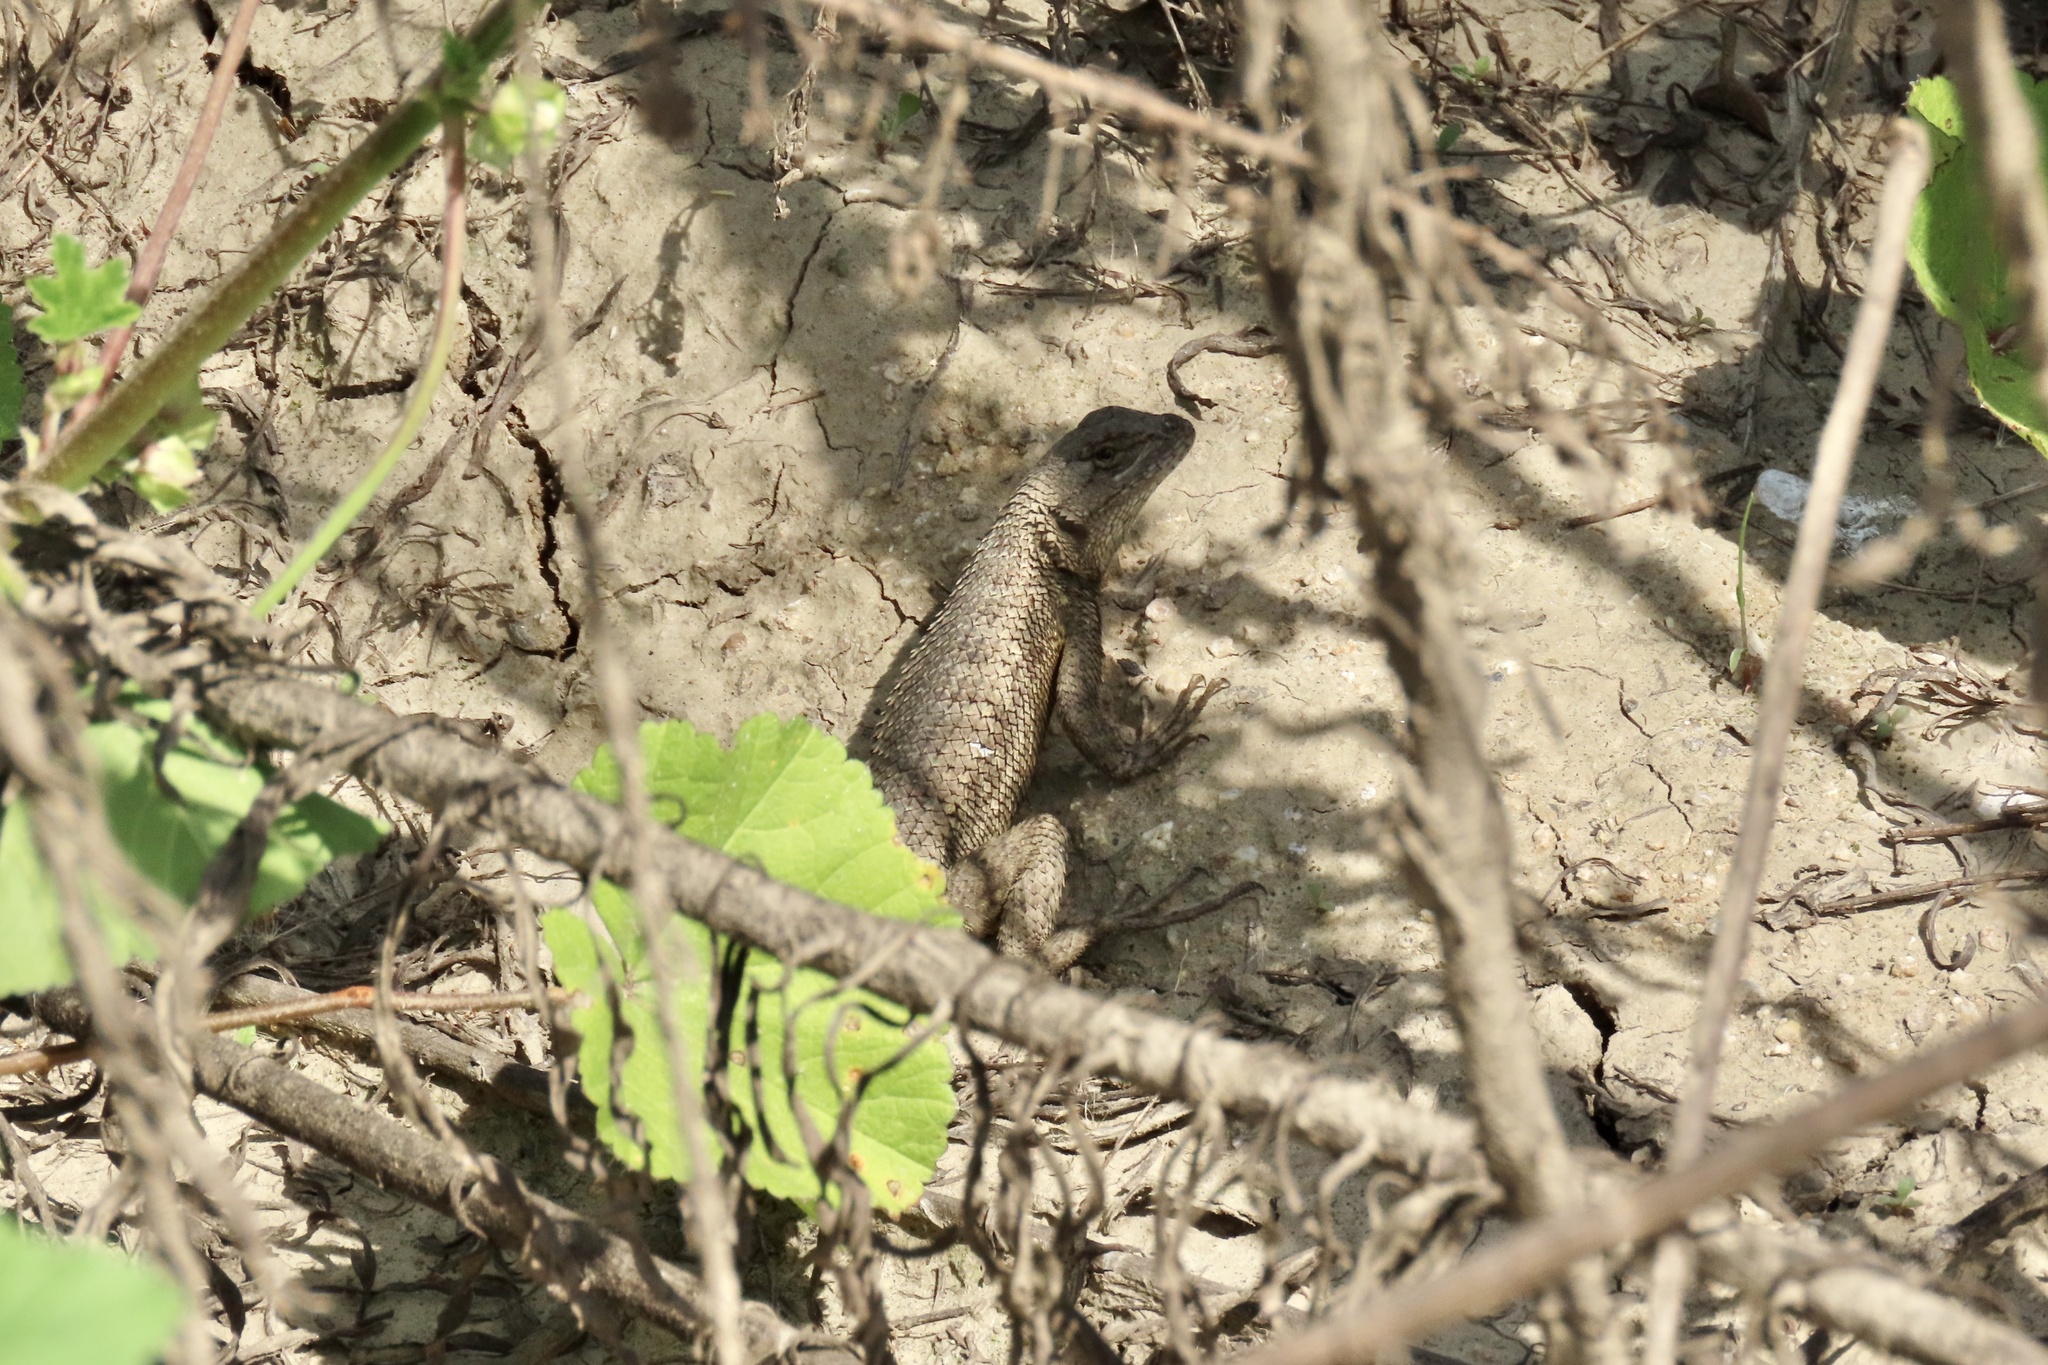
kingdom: Animalia
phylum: Chordata
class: Squamata
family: Phrynosomatidae
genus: Sceloporus
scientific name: Sceloporus occidentalis
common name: Western fence lizard
